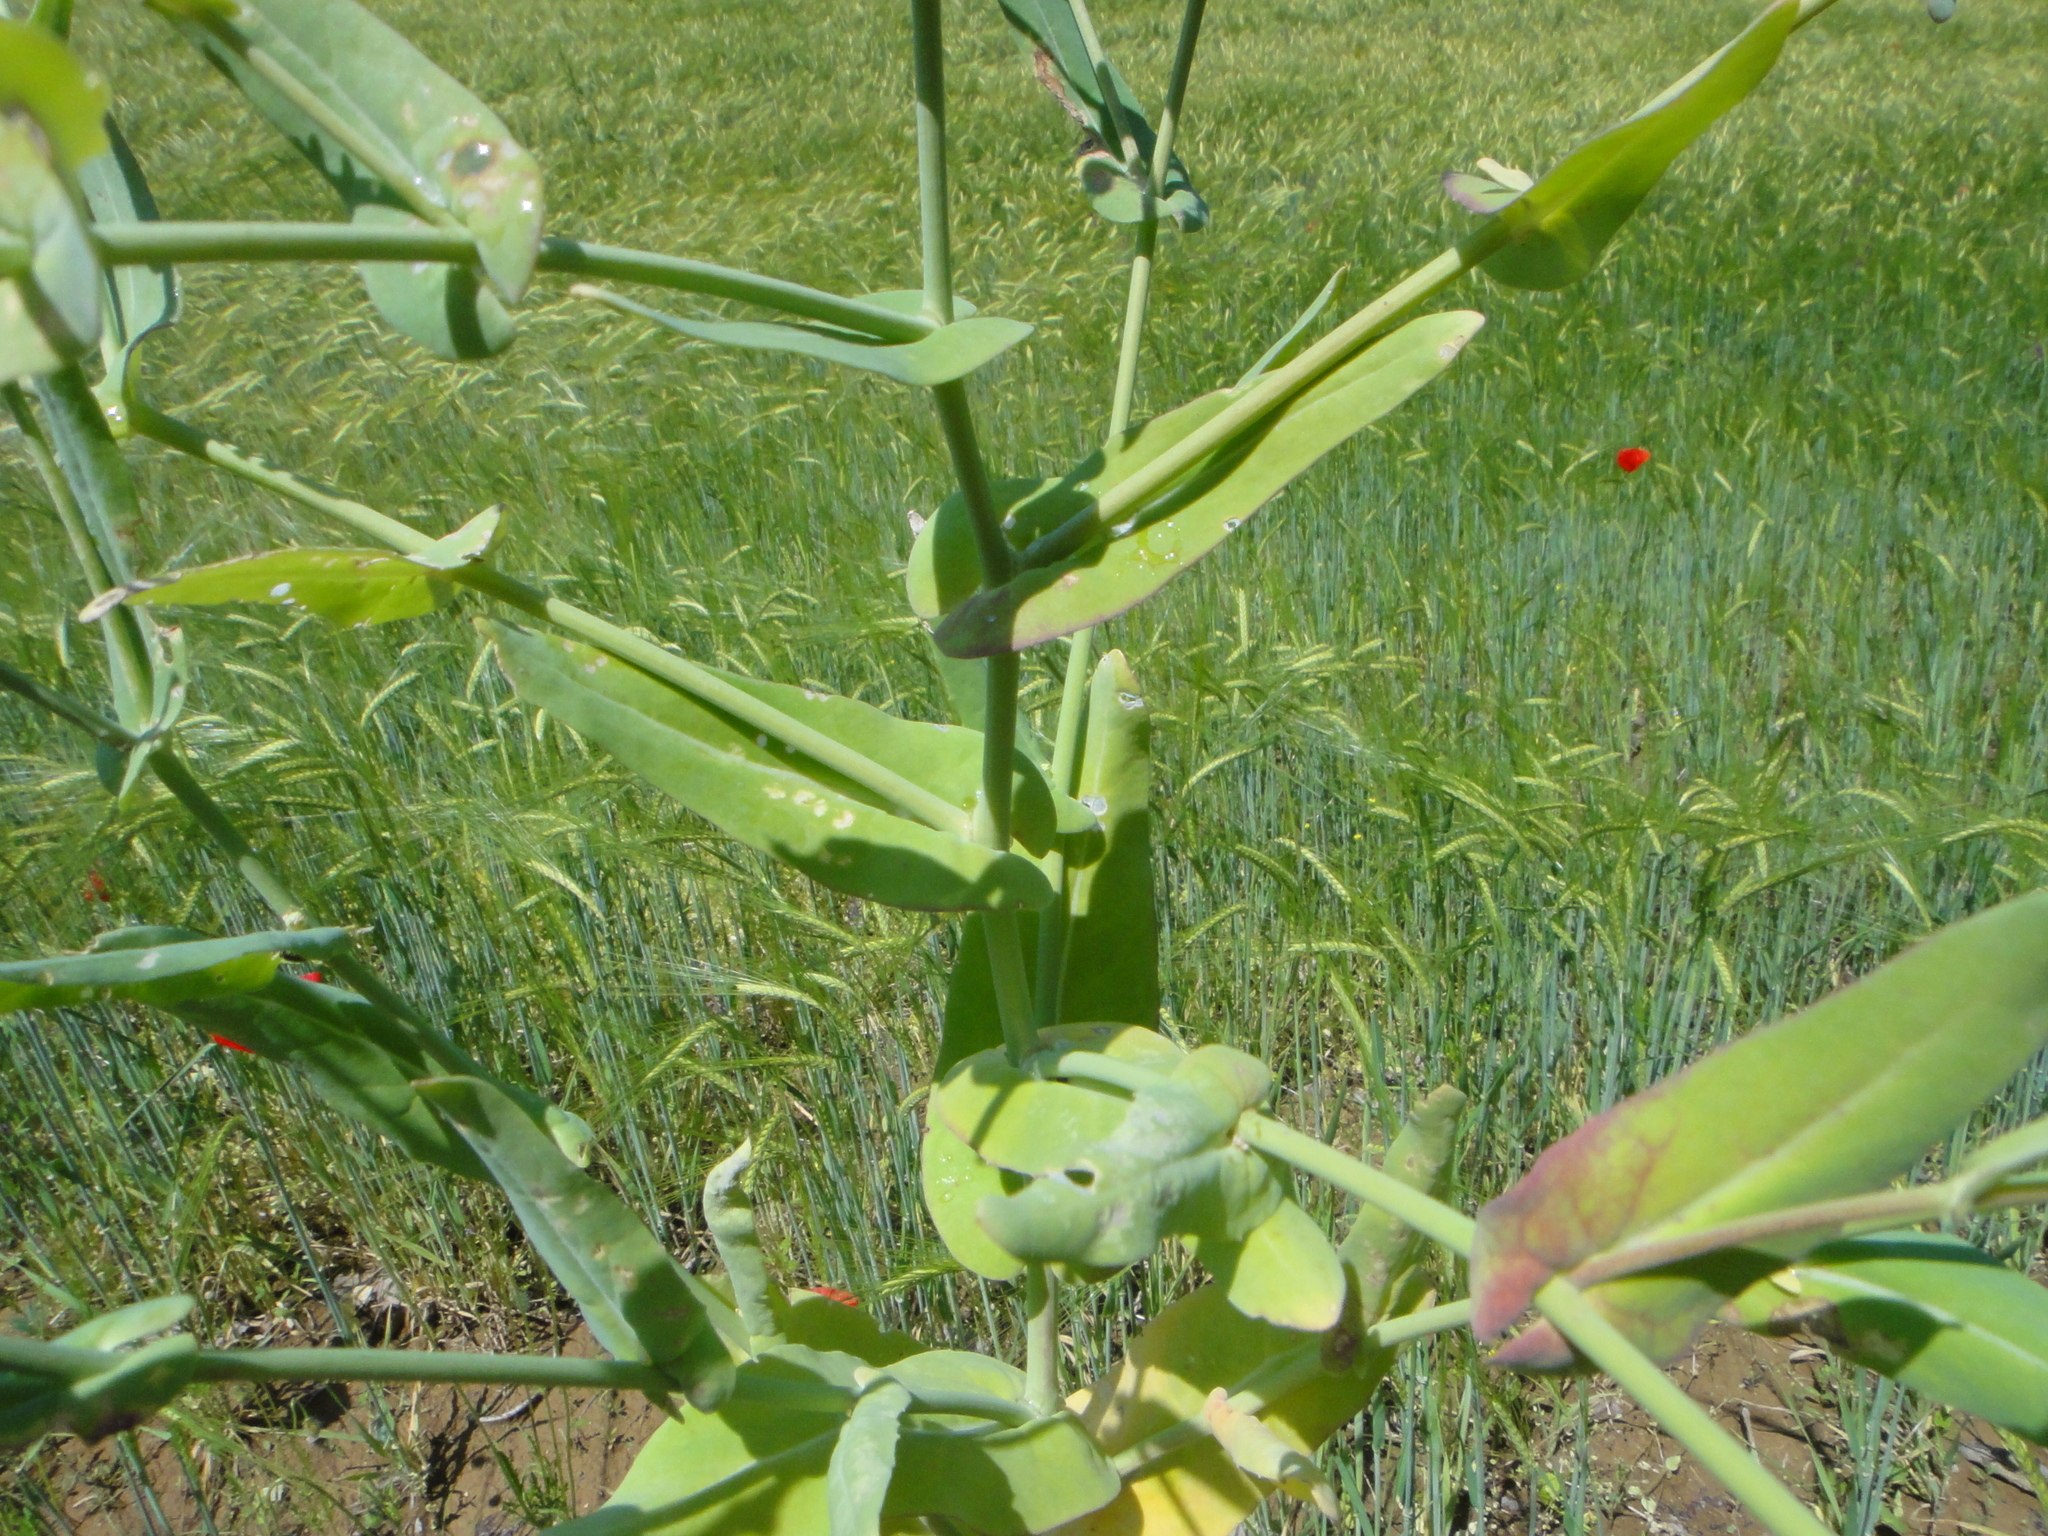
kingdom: Plantae
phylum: Tracheophyta
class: Magnoliopsida
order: Brassicales
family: Brassicaceae
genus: Myagrum
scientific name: Myagrum perfoliatum
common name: Mitre cress
